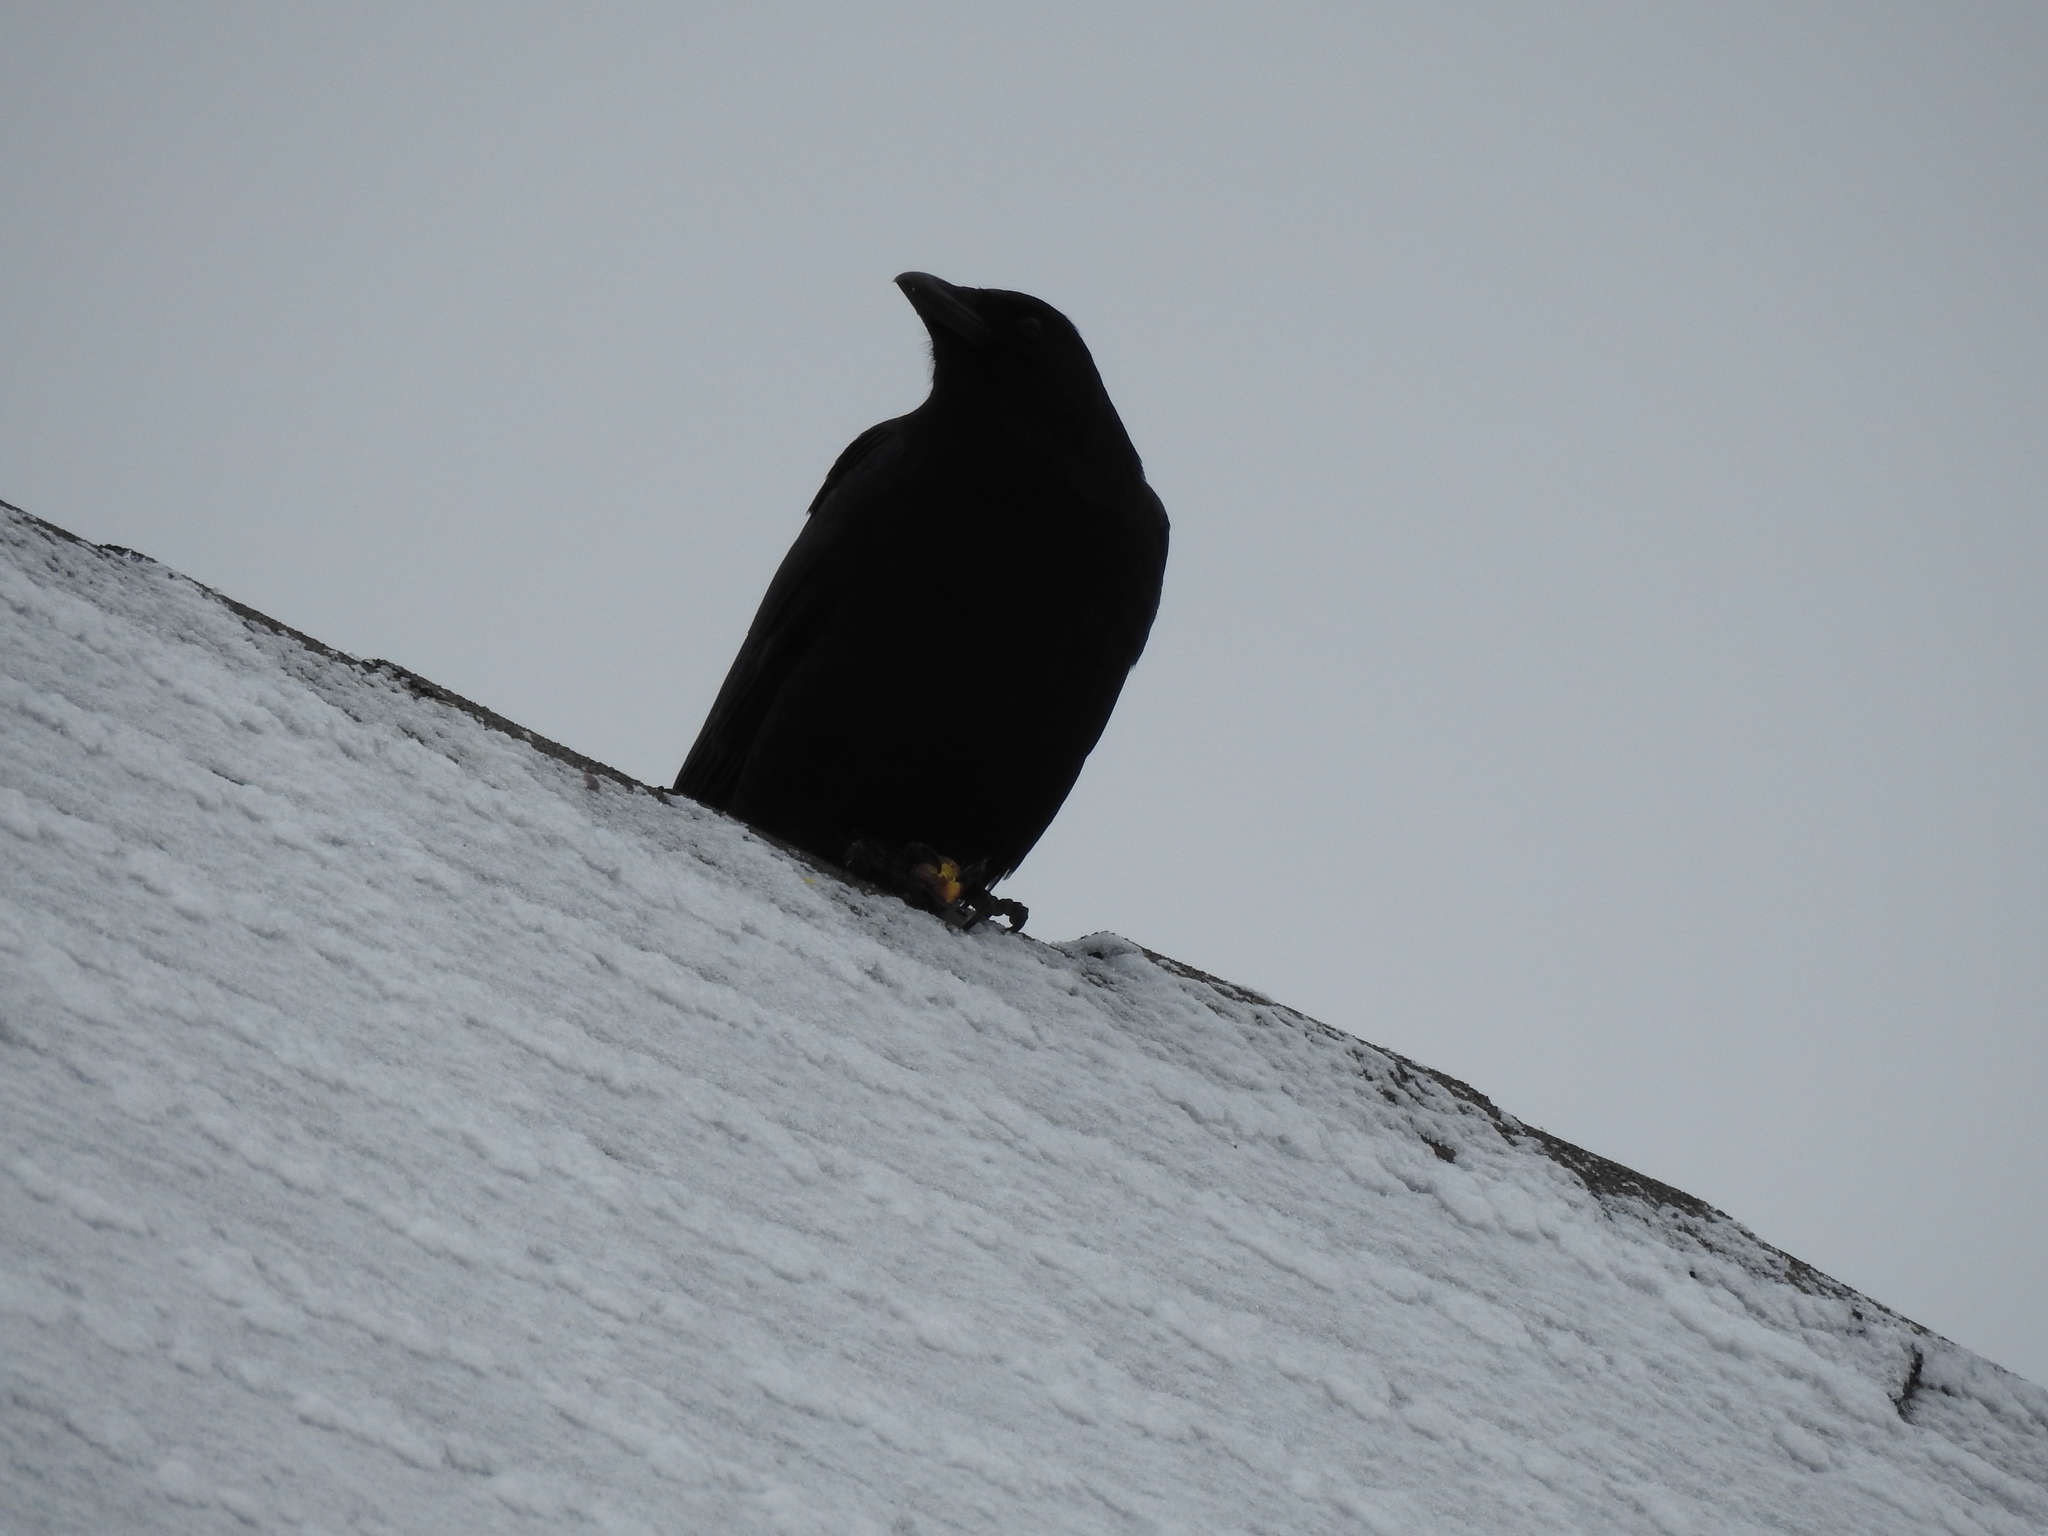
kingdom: Animalia
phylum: Chordata
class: Aves
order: Passeriformes
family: Corvidae
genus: Corvus
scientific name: Corvus brachyrhynchos
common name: American crow
